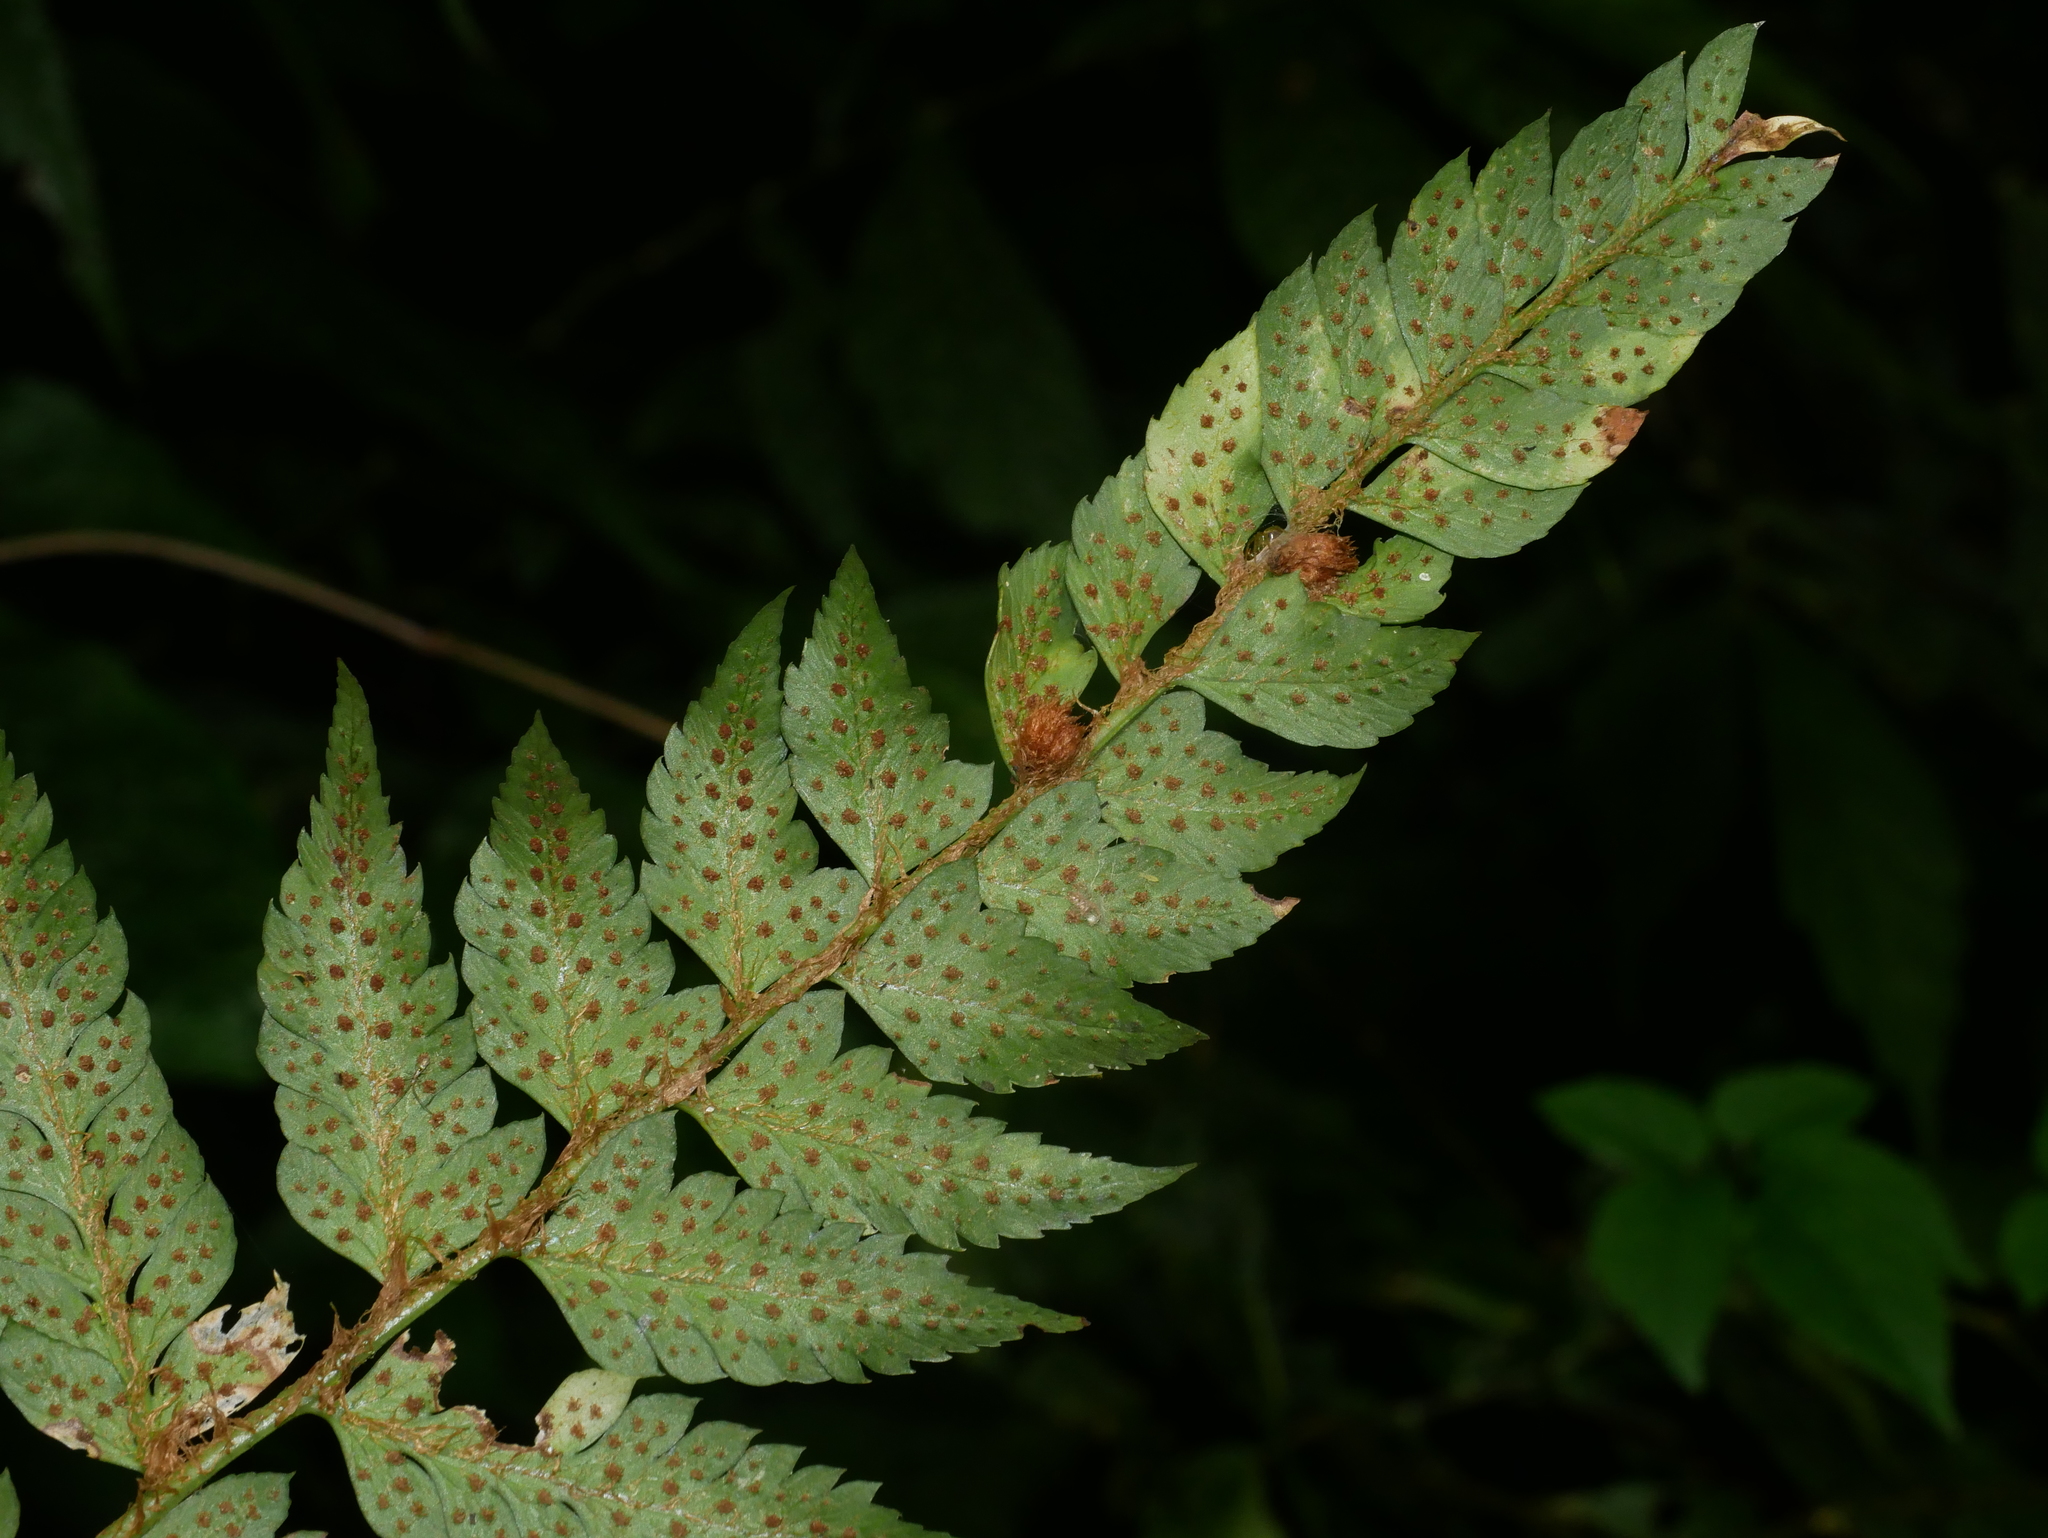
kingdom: Plantae
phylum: Tracheophyta
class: Polypodiopsida
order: Polypodiales
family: Dryopteridaceae
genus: Polystichum
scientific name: Polystichum scariosum
